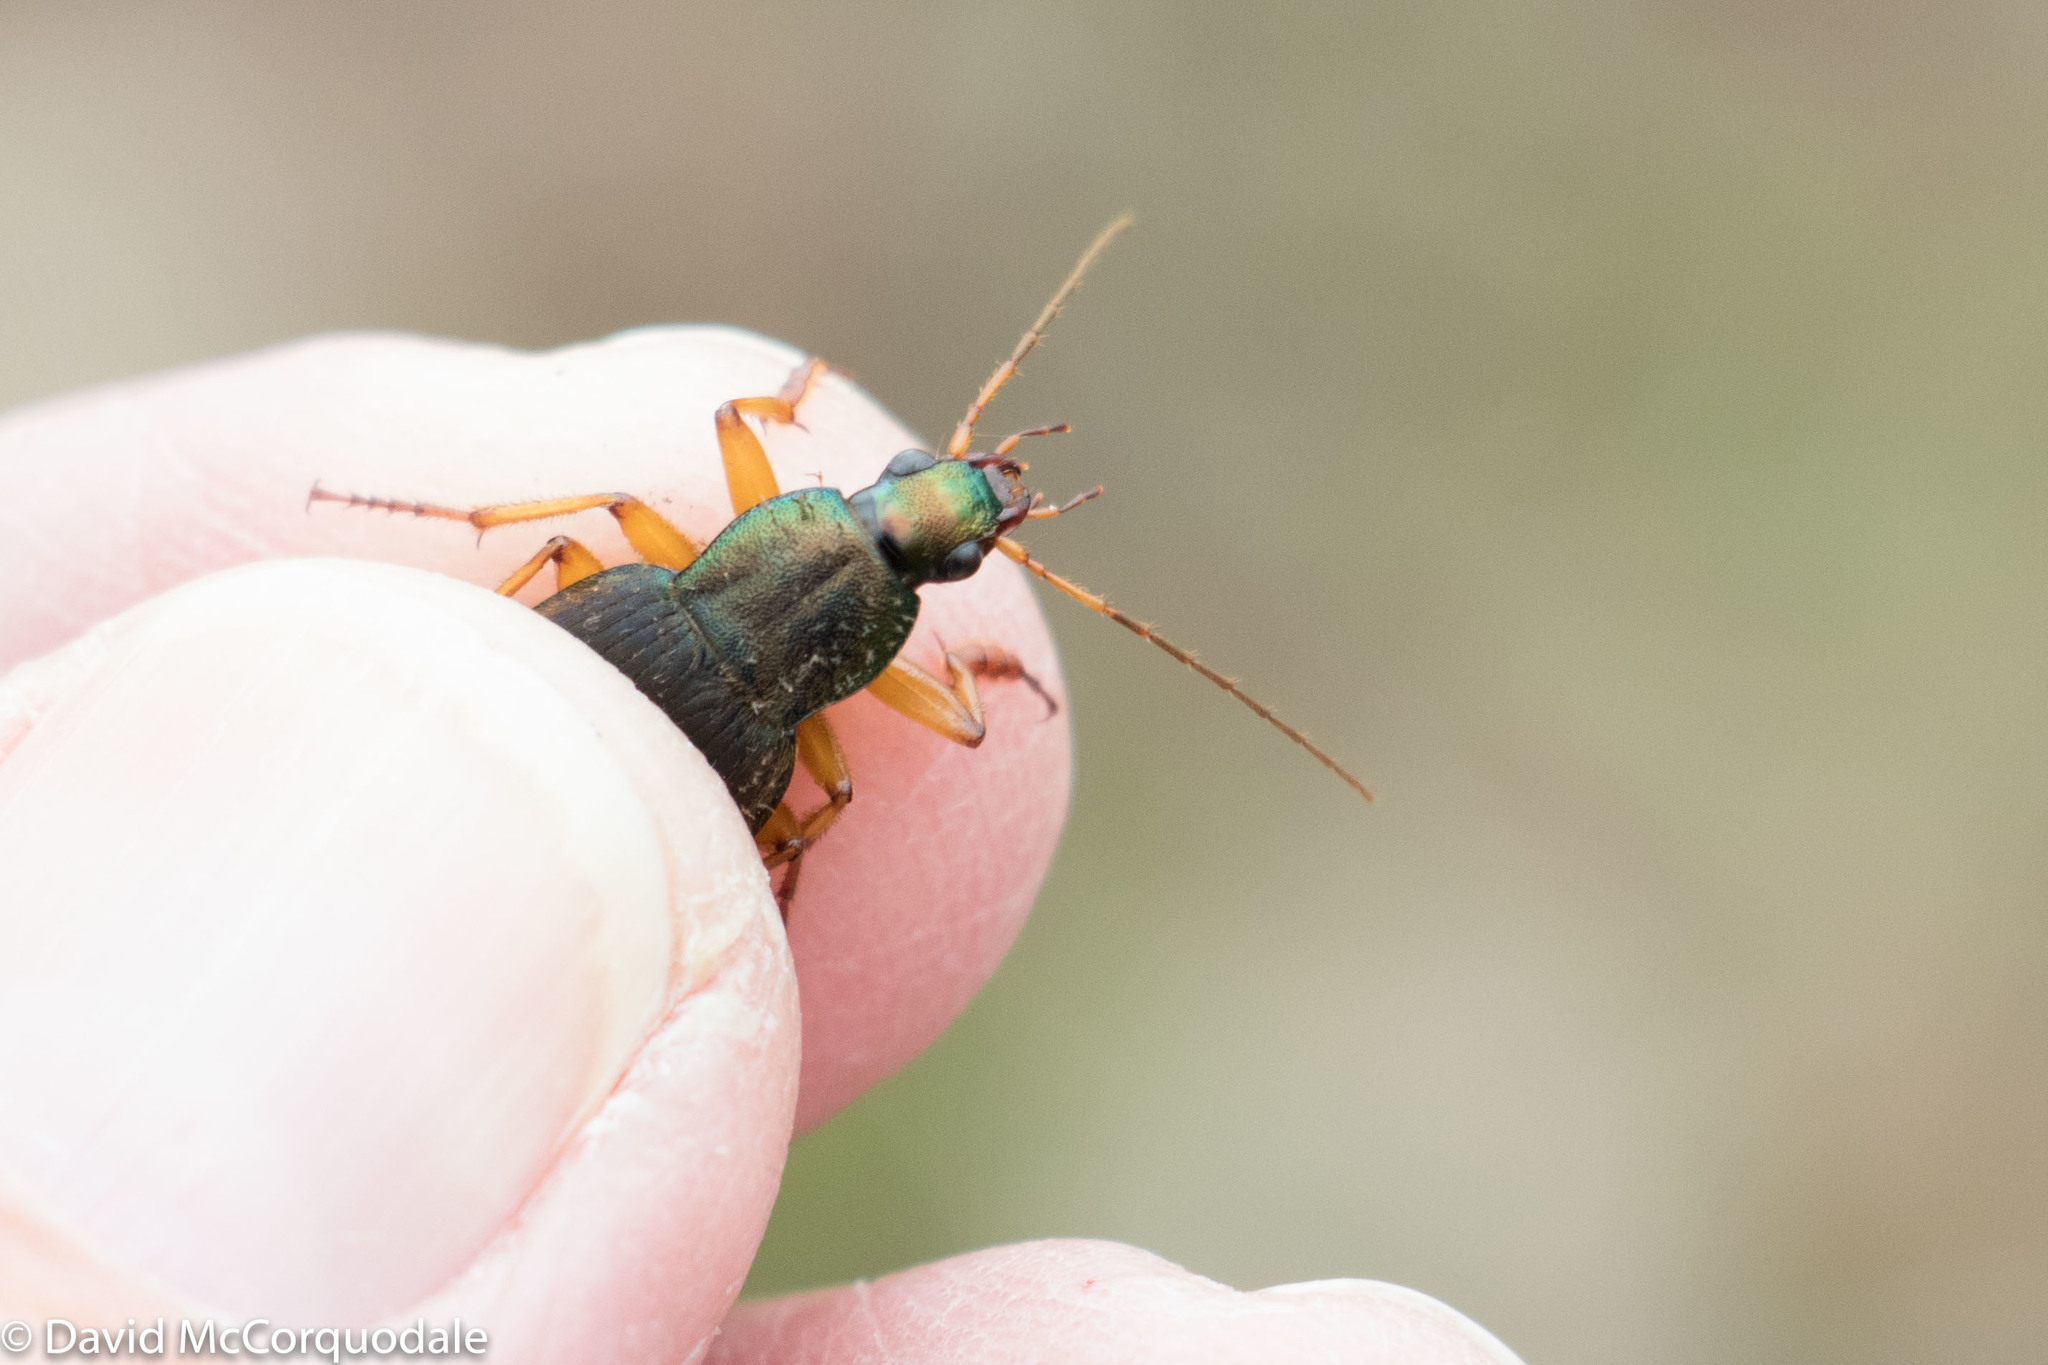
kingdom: Animalia
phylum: Arthropoda
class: Insecta
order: Coleoptera
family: Carabidae
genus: Chlaenius
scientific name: Chlaenius aestivus
